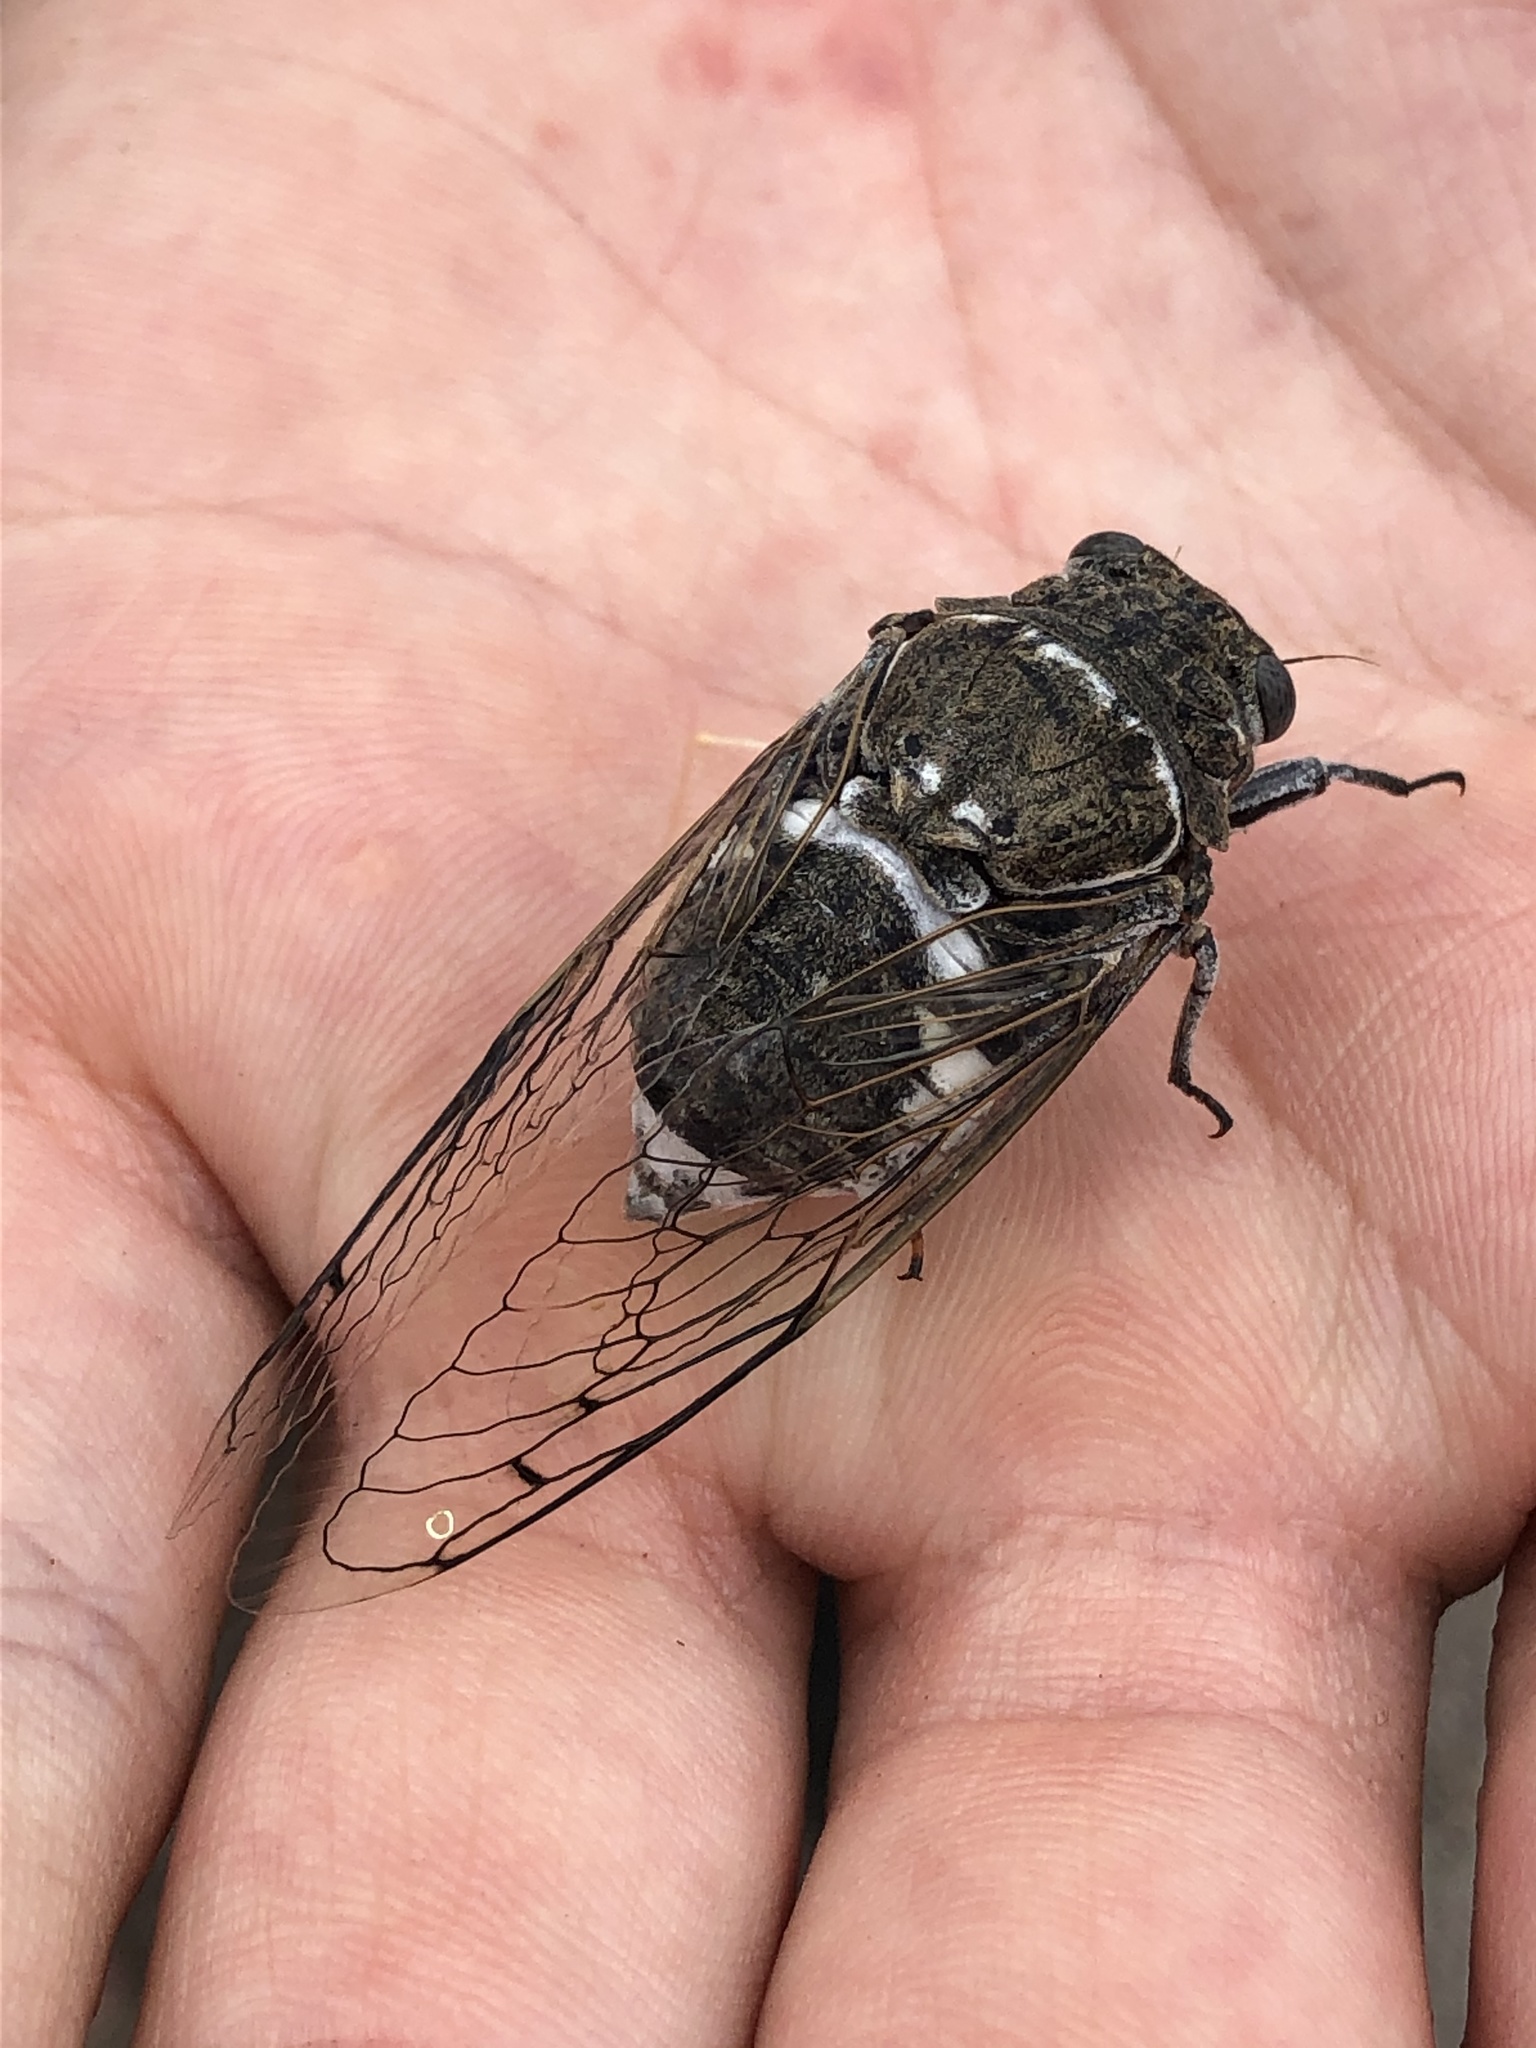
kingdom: Animalia
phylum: Arthropoda
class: Insecta
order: Hemiptera
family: Cicadidae
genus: Cacama
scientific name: Cacama valvata
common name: Cactus dodger
